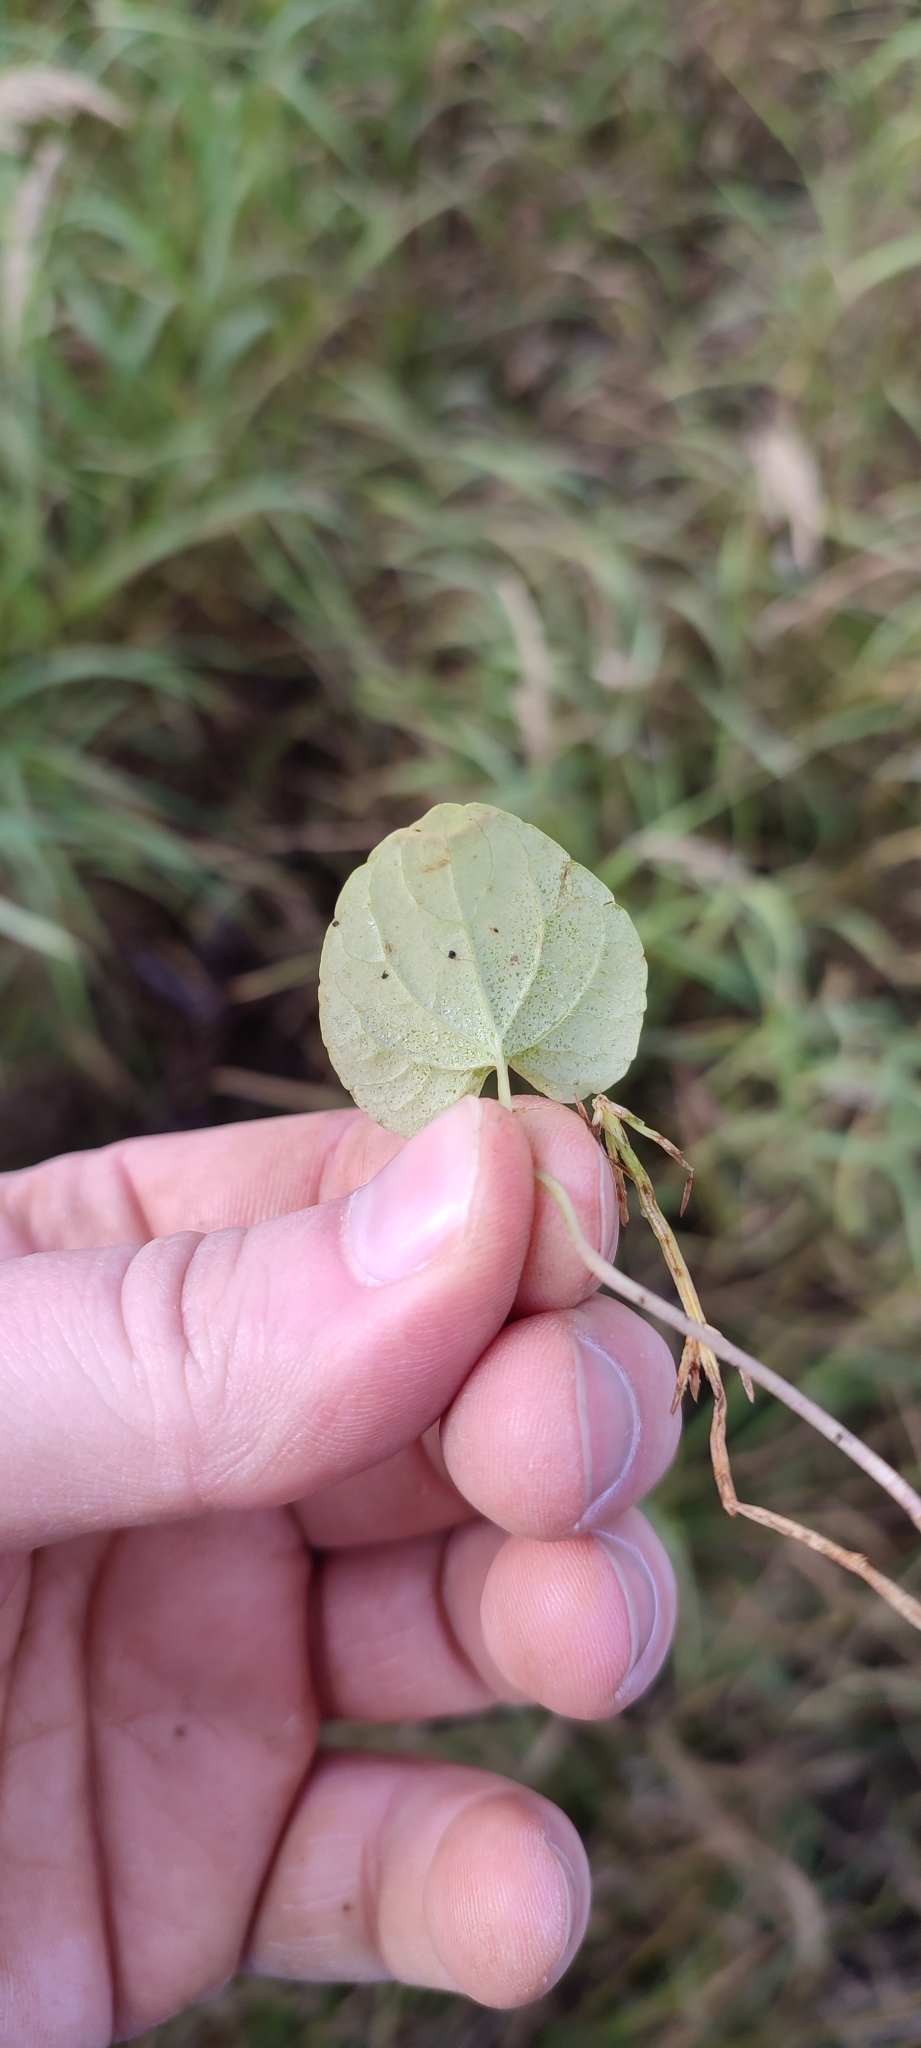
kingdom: Plantae
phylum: Tracheophyta
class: Magnoliopsida
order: Malpighiales
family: Violaceae
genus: Viola
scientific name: Viola epipsila
